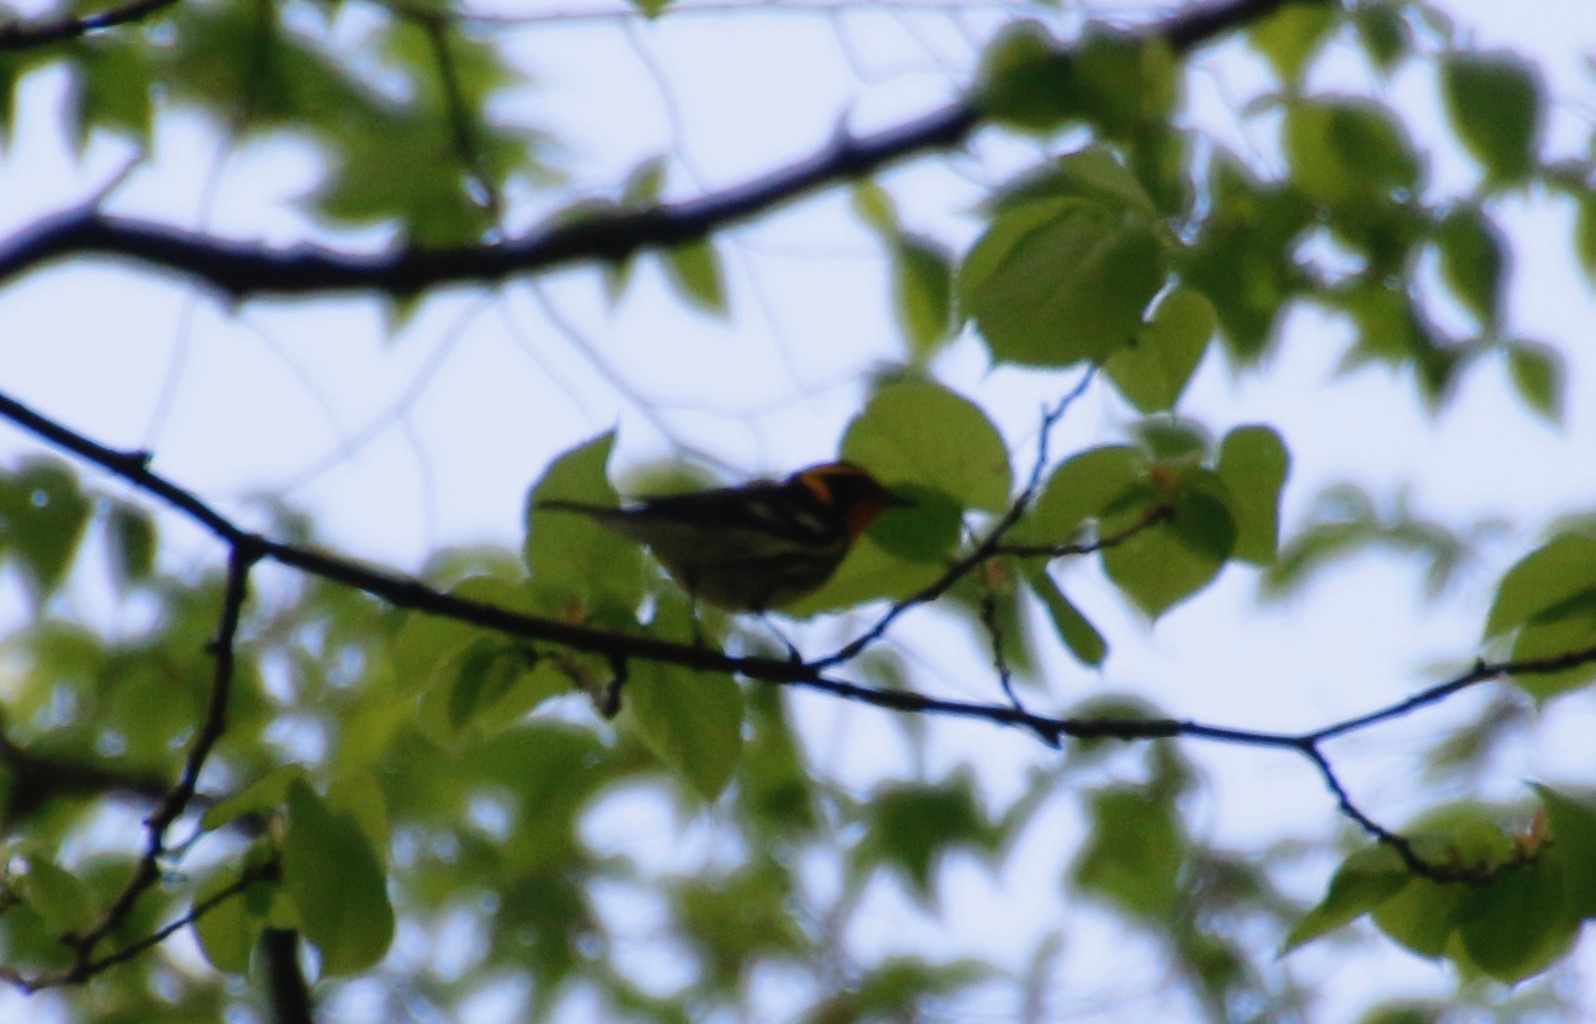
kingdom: Animalia
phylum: Chordata
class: Aves
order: Passeriformes
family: Parulidae
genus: Setophaga
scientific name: Setophaga fusca
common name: Blackburnian warbler
